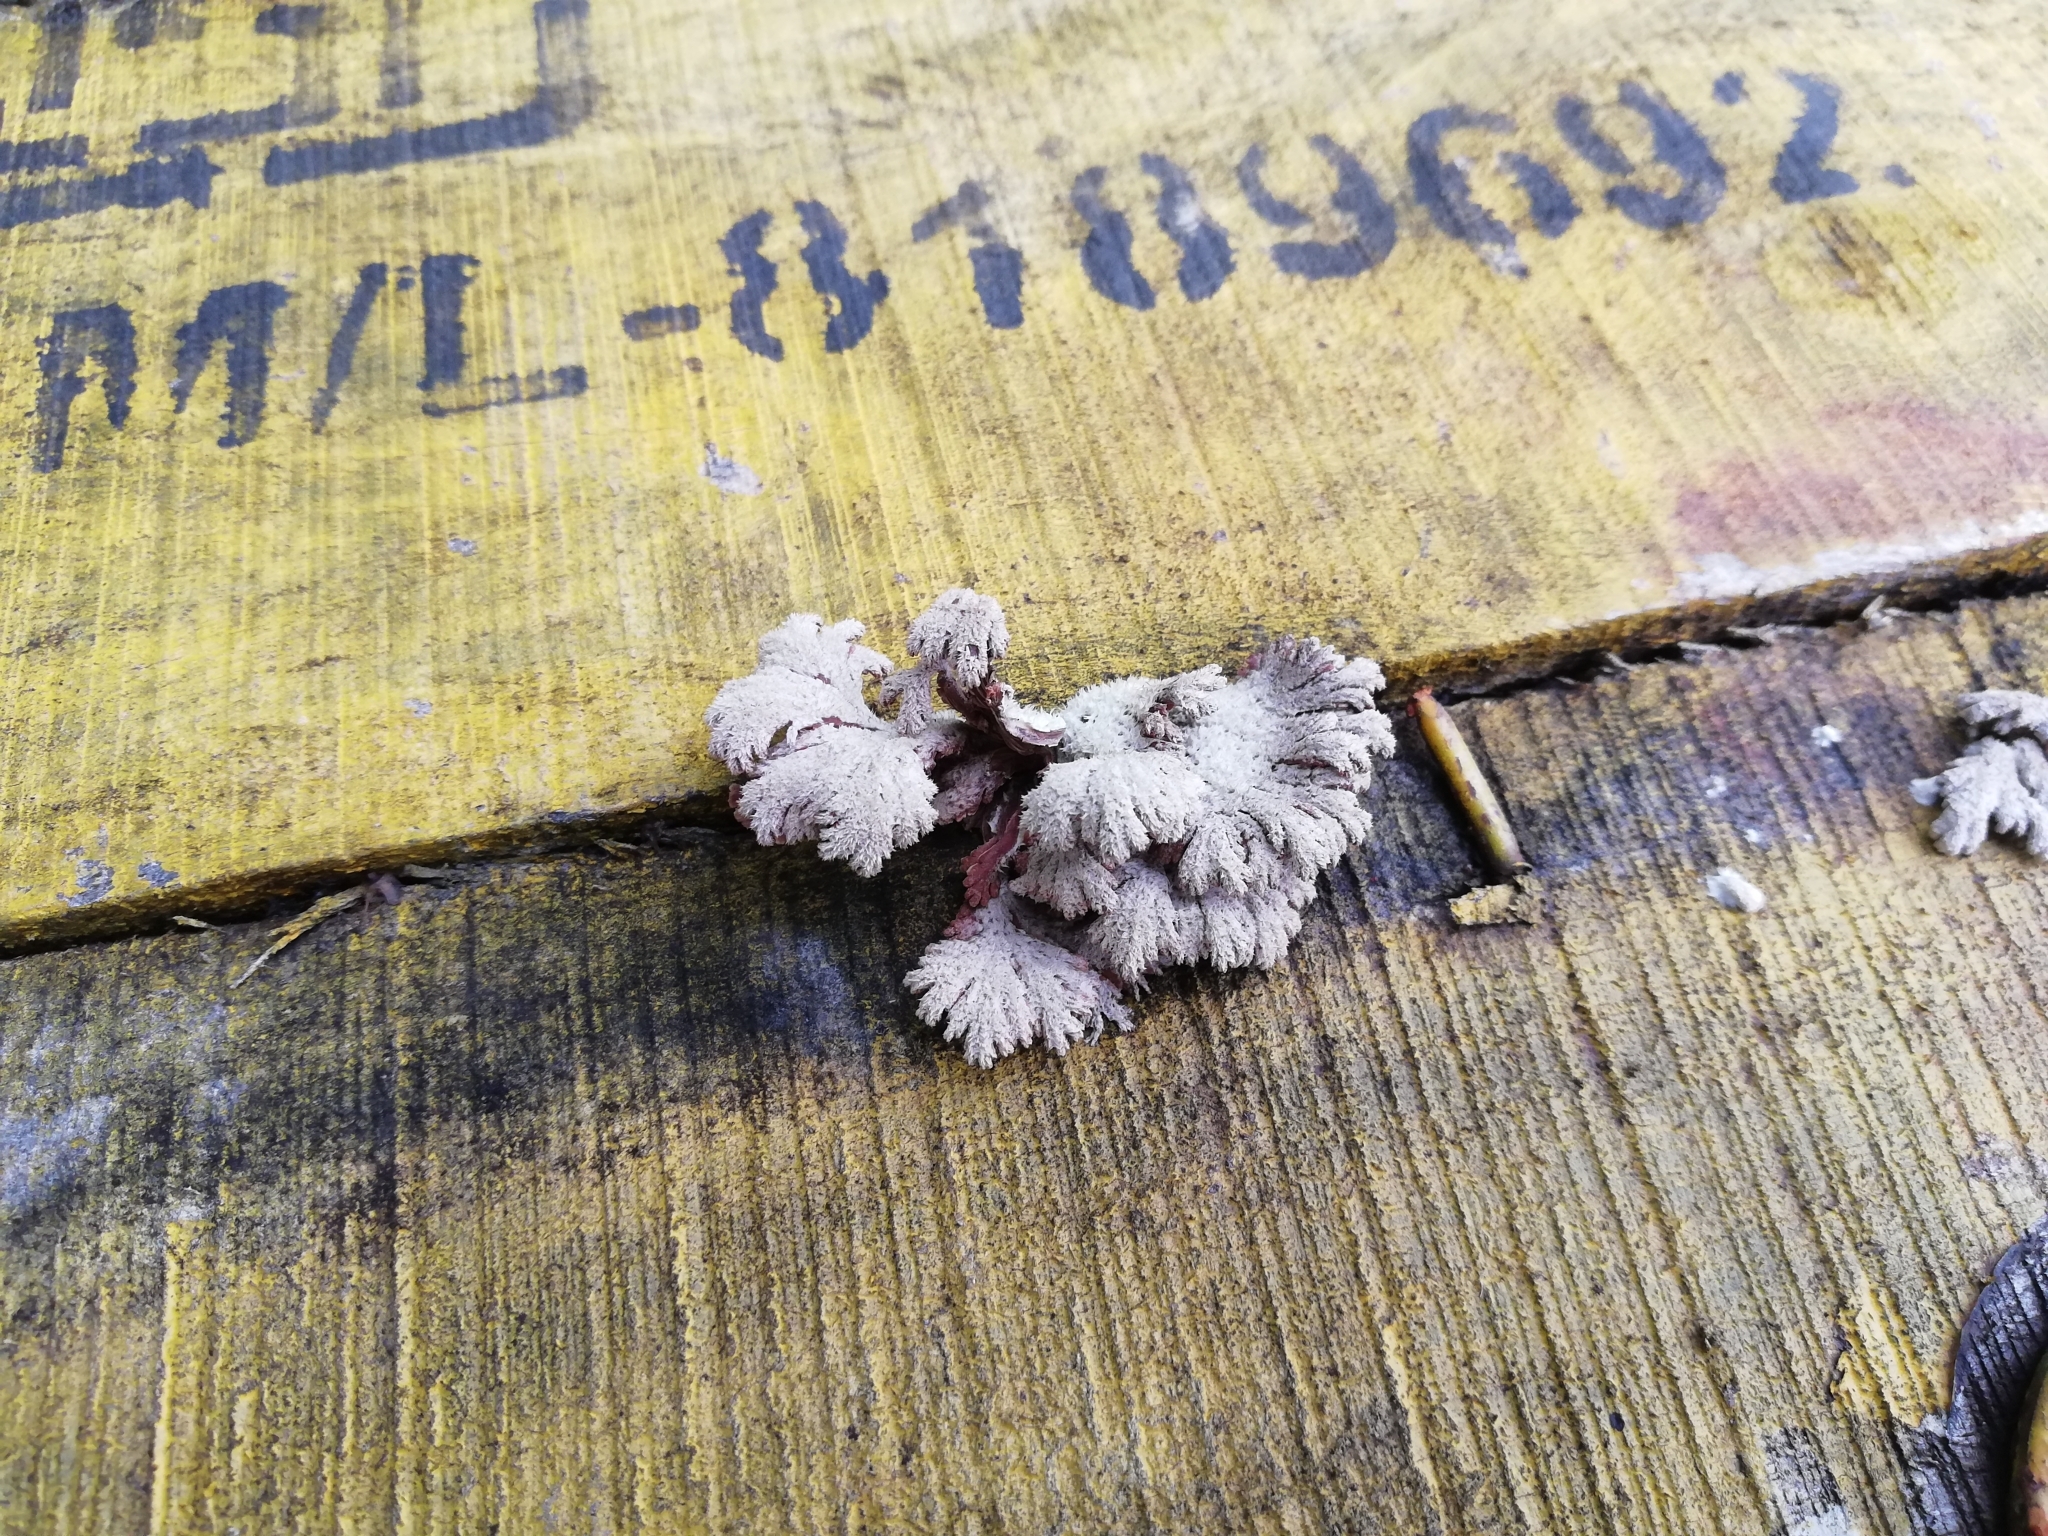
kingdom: Fungi
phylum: Basidiomycota
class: Agaricomycetes
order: Agaricales
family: Schizophyllaceae
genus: Schizophyllum
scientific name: Schizophyllum commune
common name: Common porecrust
